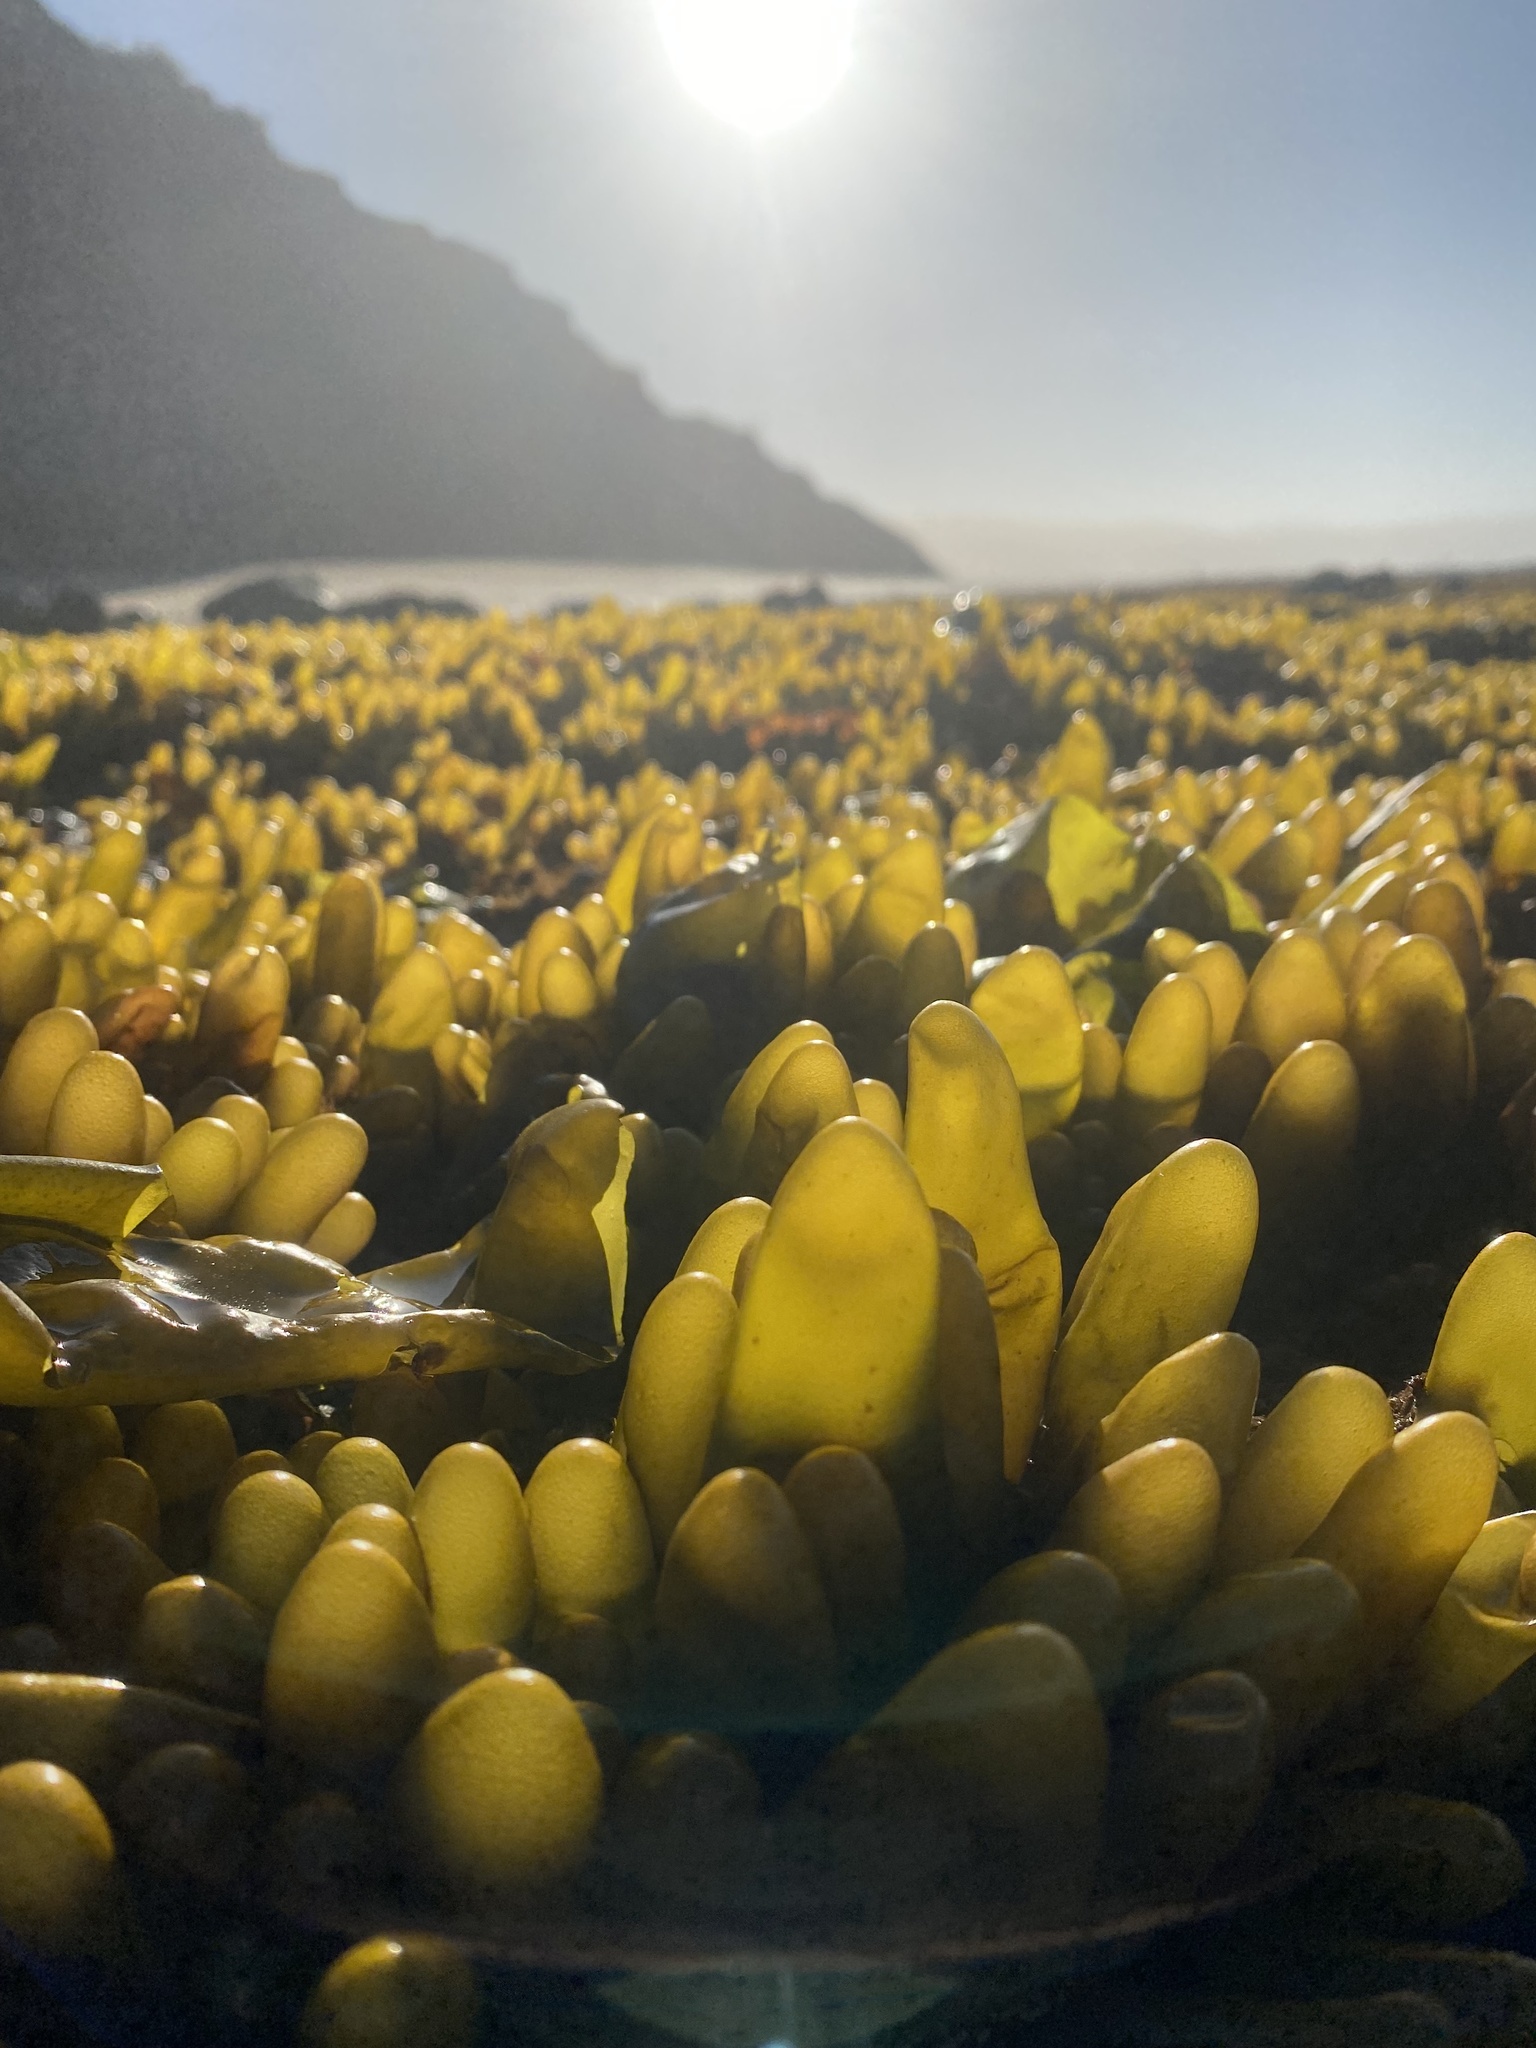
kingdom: Plantae
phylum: Rhodophyta
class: Florideophyceae
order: Palmariales
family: Palmariaceae
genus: Halosaccion
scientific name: Halosaccion glandiforme
